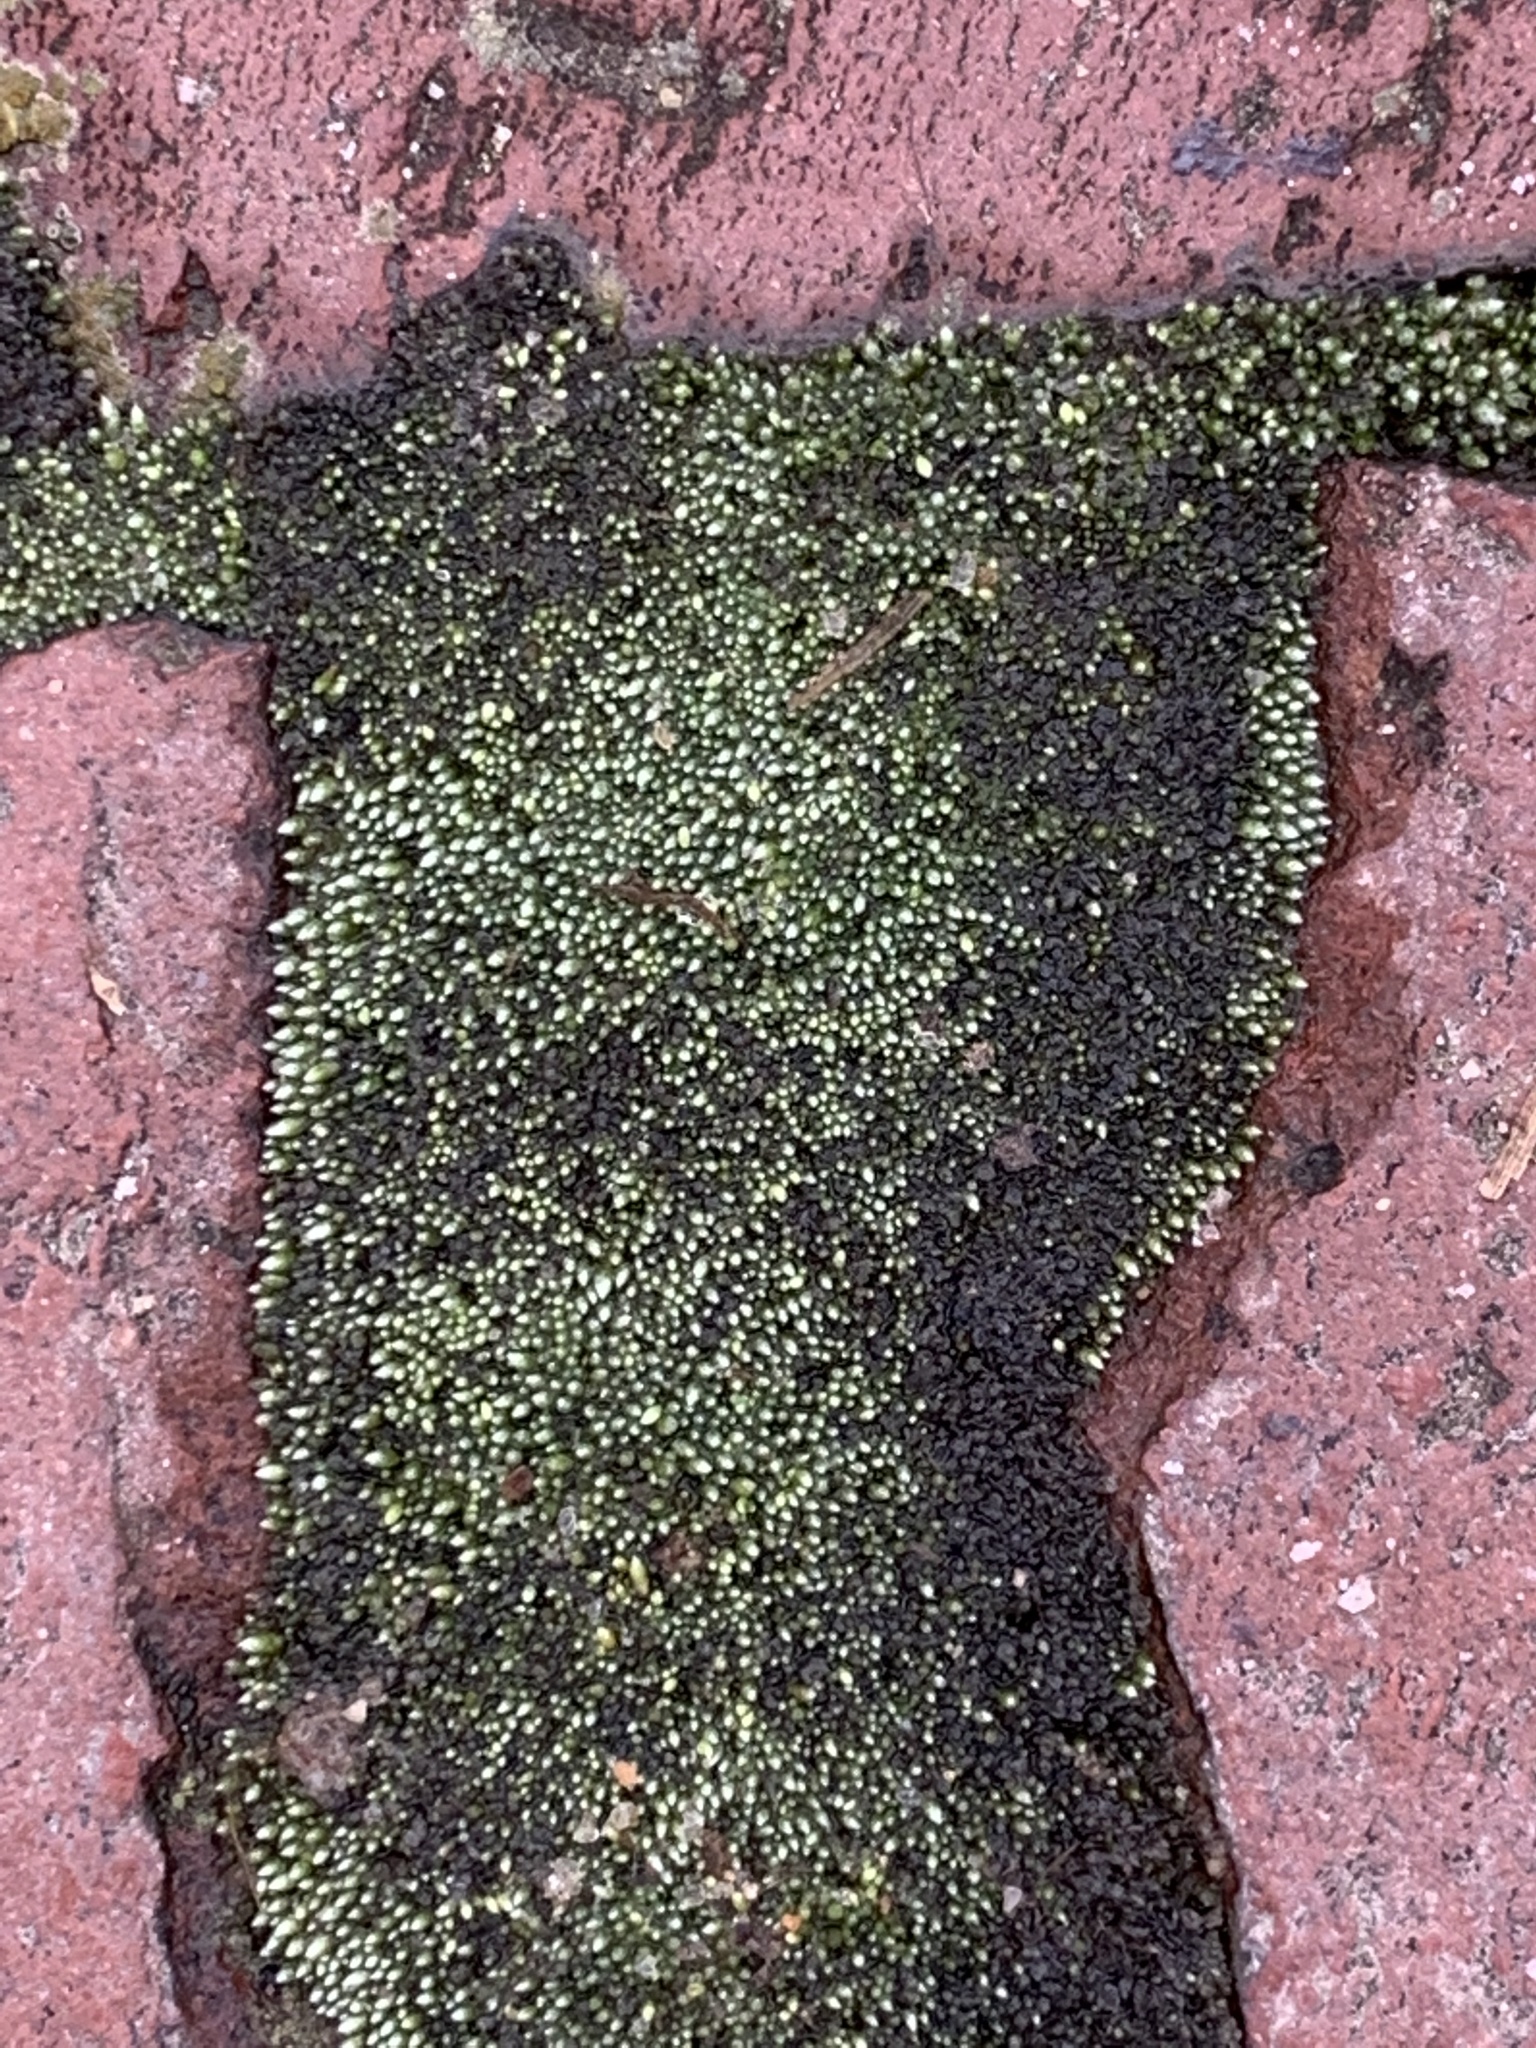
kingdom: Plantae
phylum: Bryophyta
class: Bryopsida
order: Bryales
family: Bryaceae
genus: Bryum
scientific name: Bryum argenteum
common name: Silver-moss
